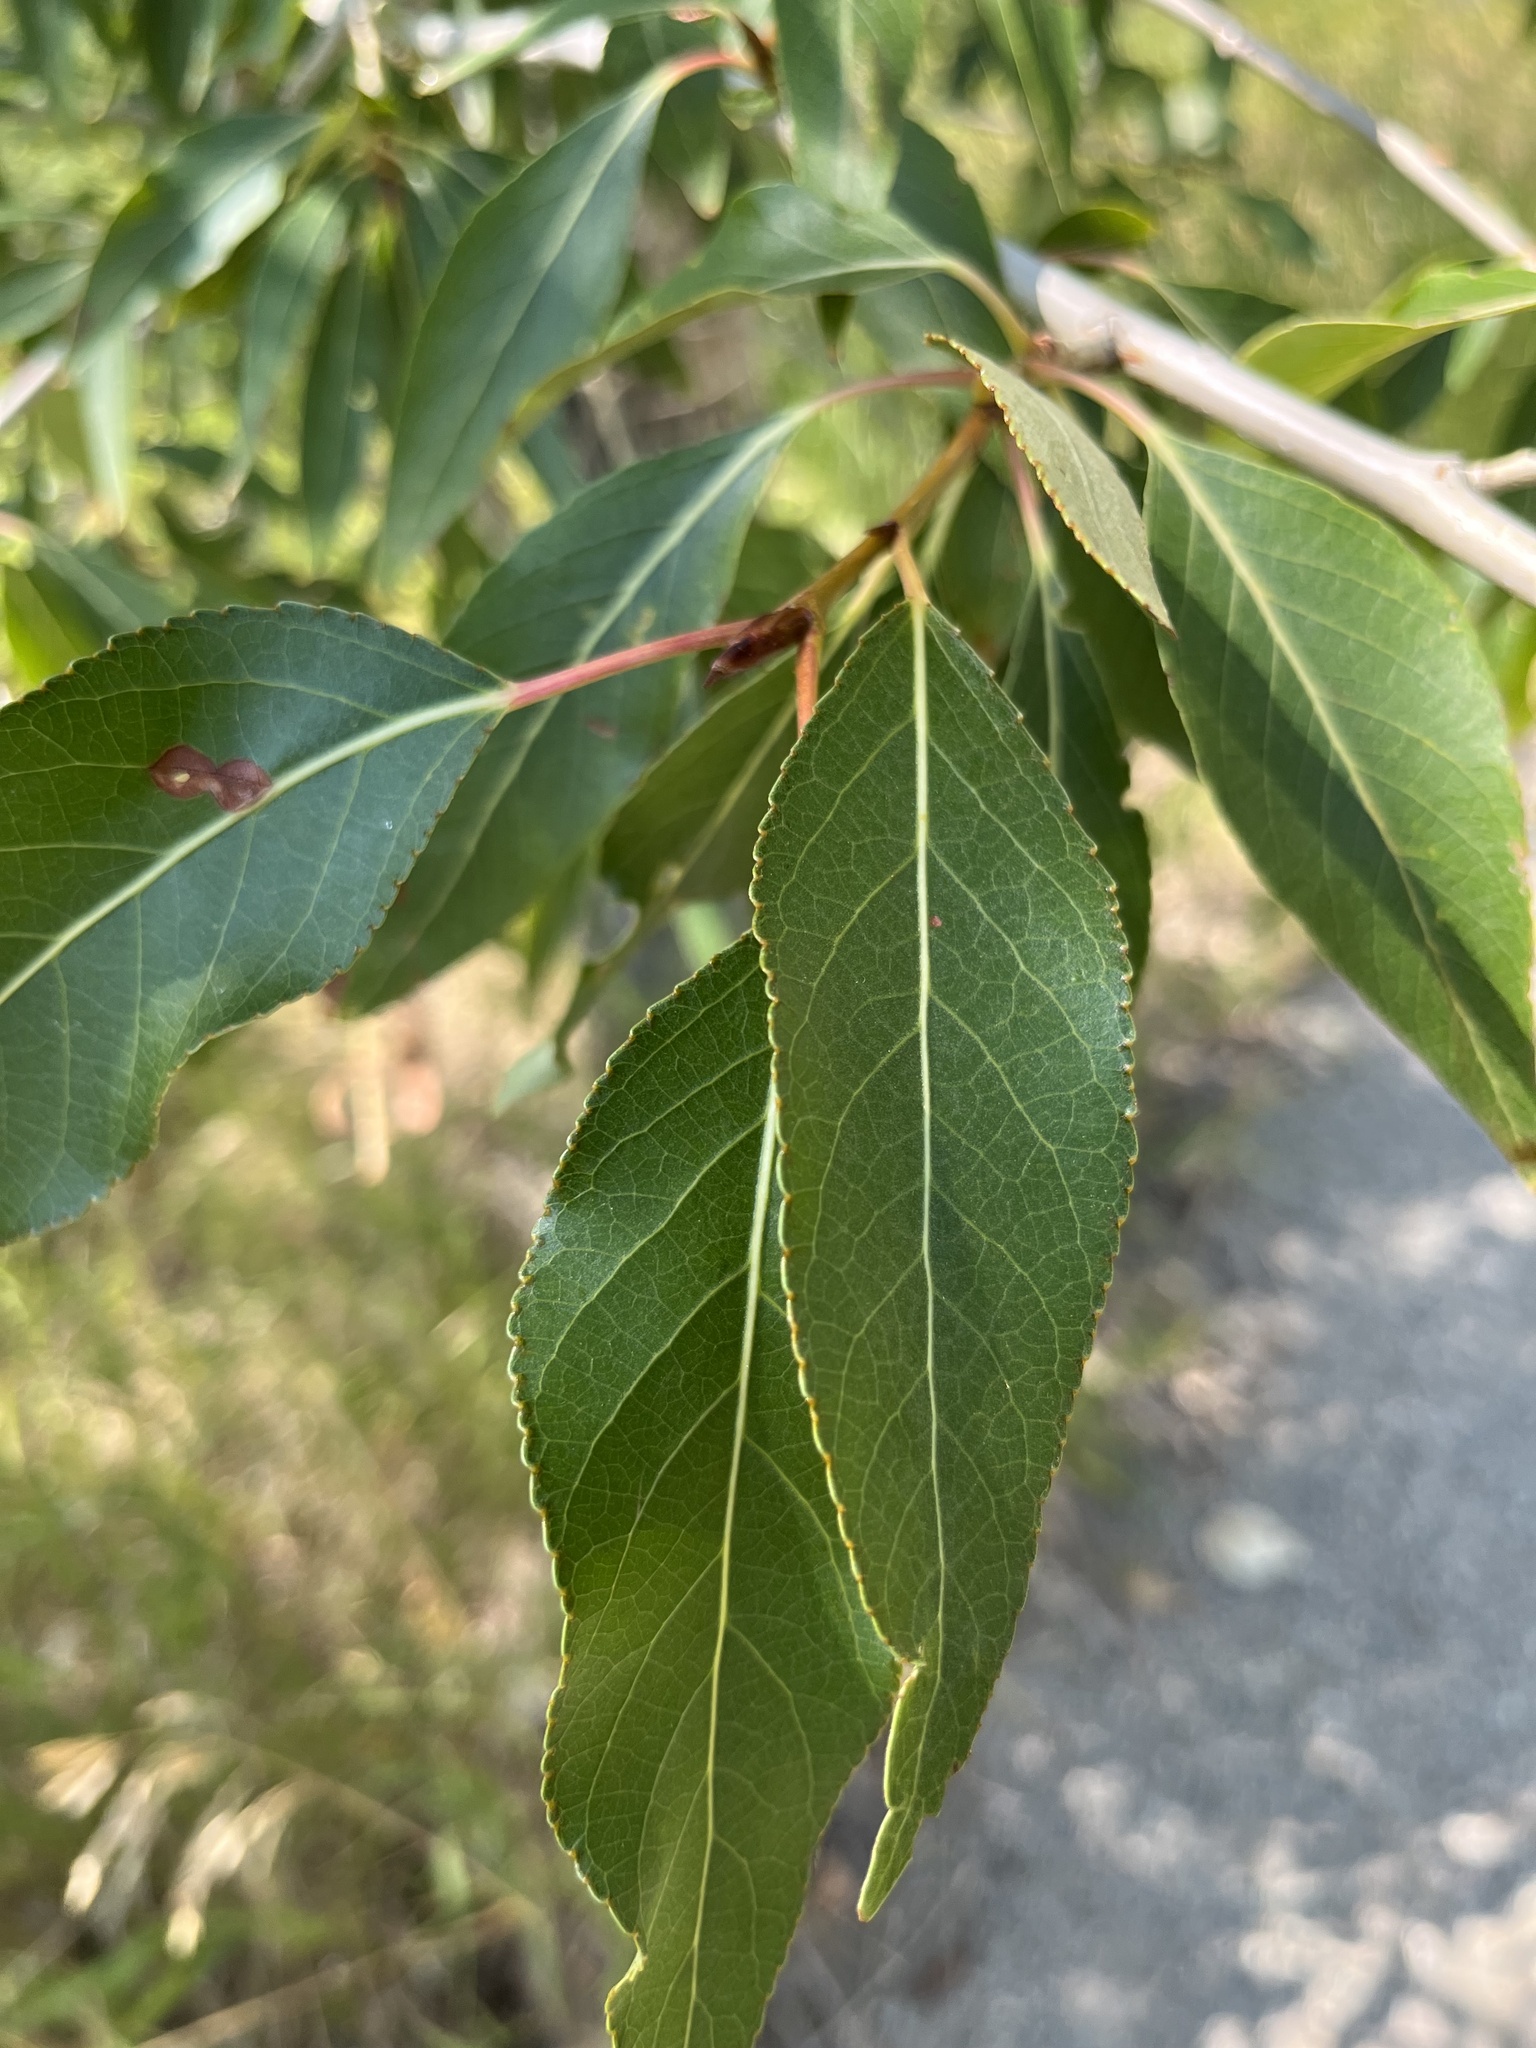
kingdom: Plantae
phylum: Tracheophyta
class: Magnoliopsida
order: Malpighiales
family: Salicaceae
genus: Populus
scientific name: Populus angustifolia
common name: Willow cottonwood
